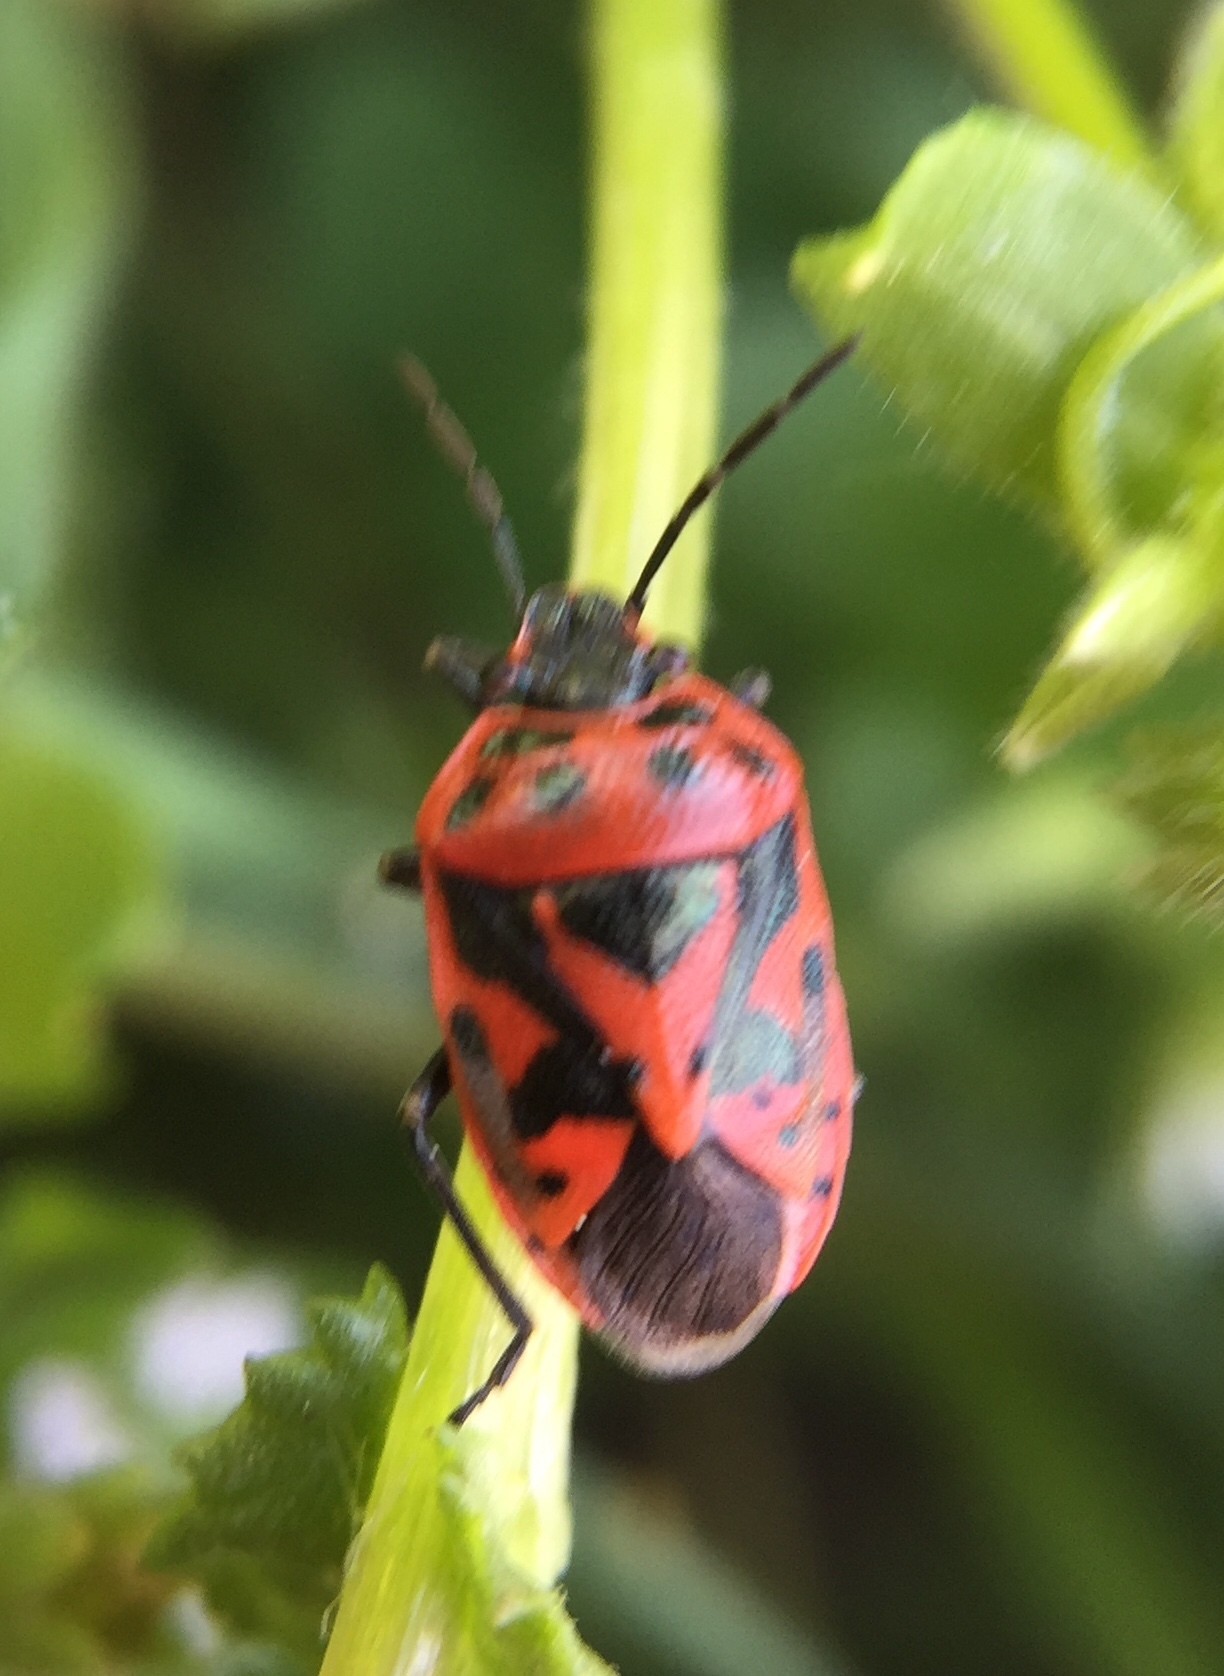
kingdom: Animalia
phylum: Arthropoda
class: Insecta
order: Hemiptera
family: Pentatomidae
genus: Eurydema
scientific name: Eurydema ornata
